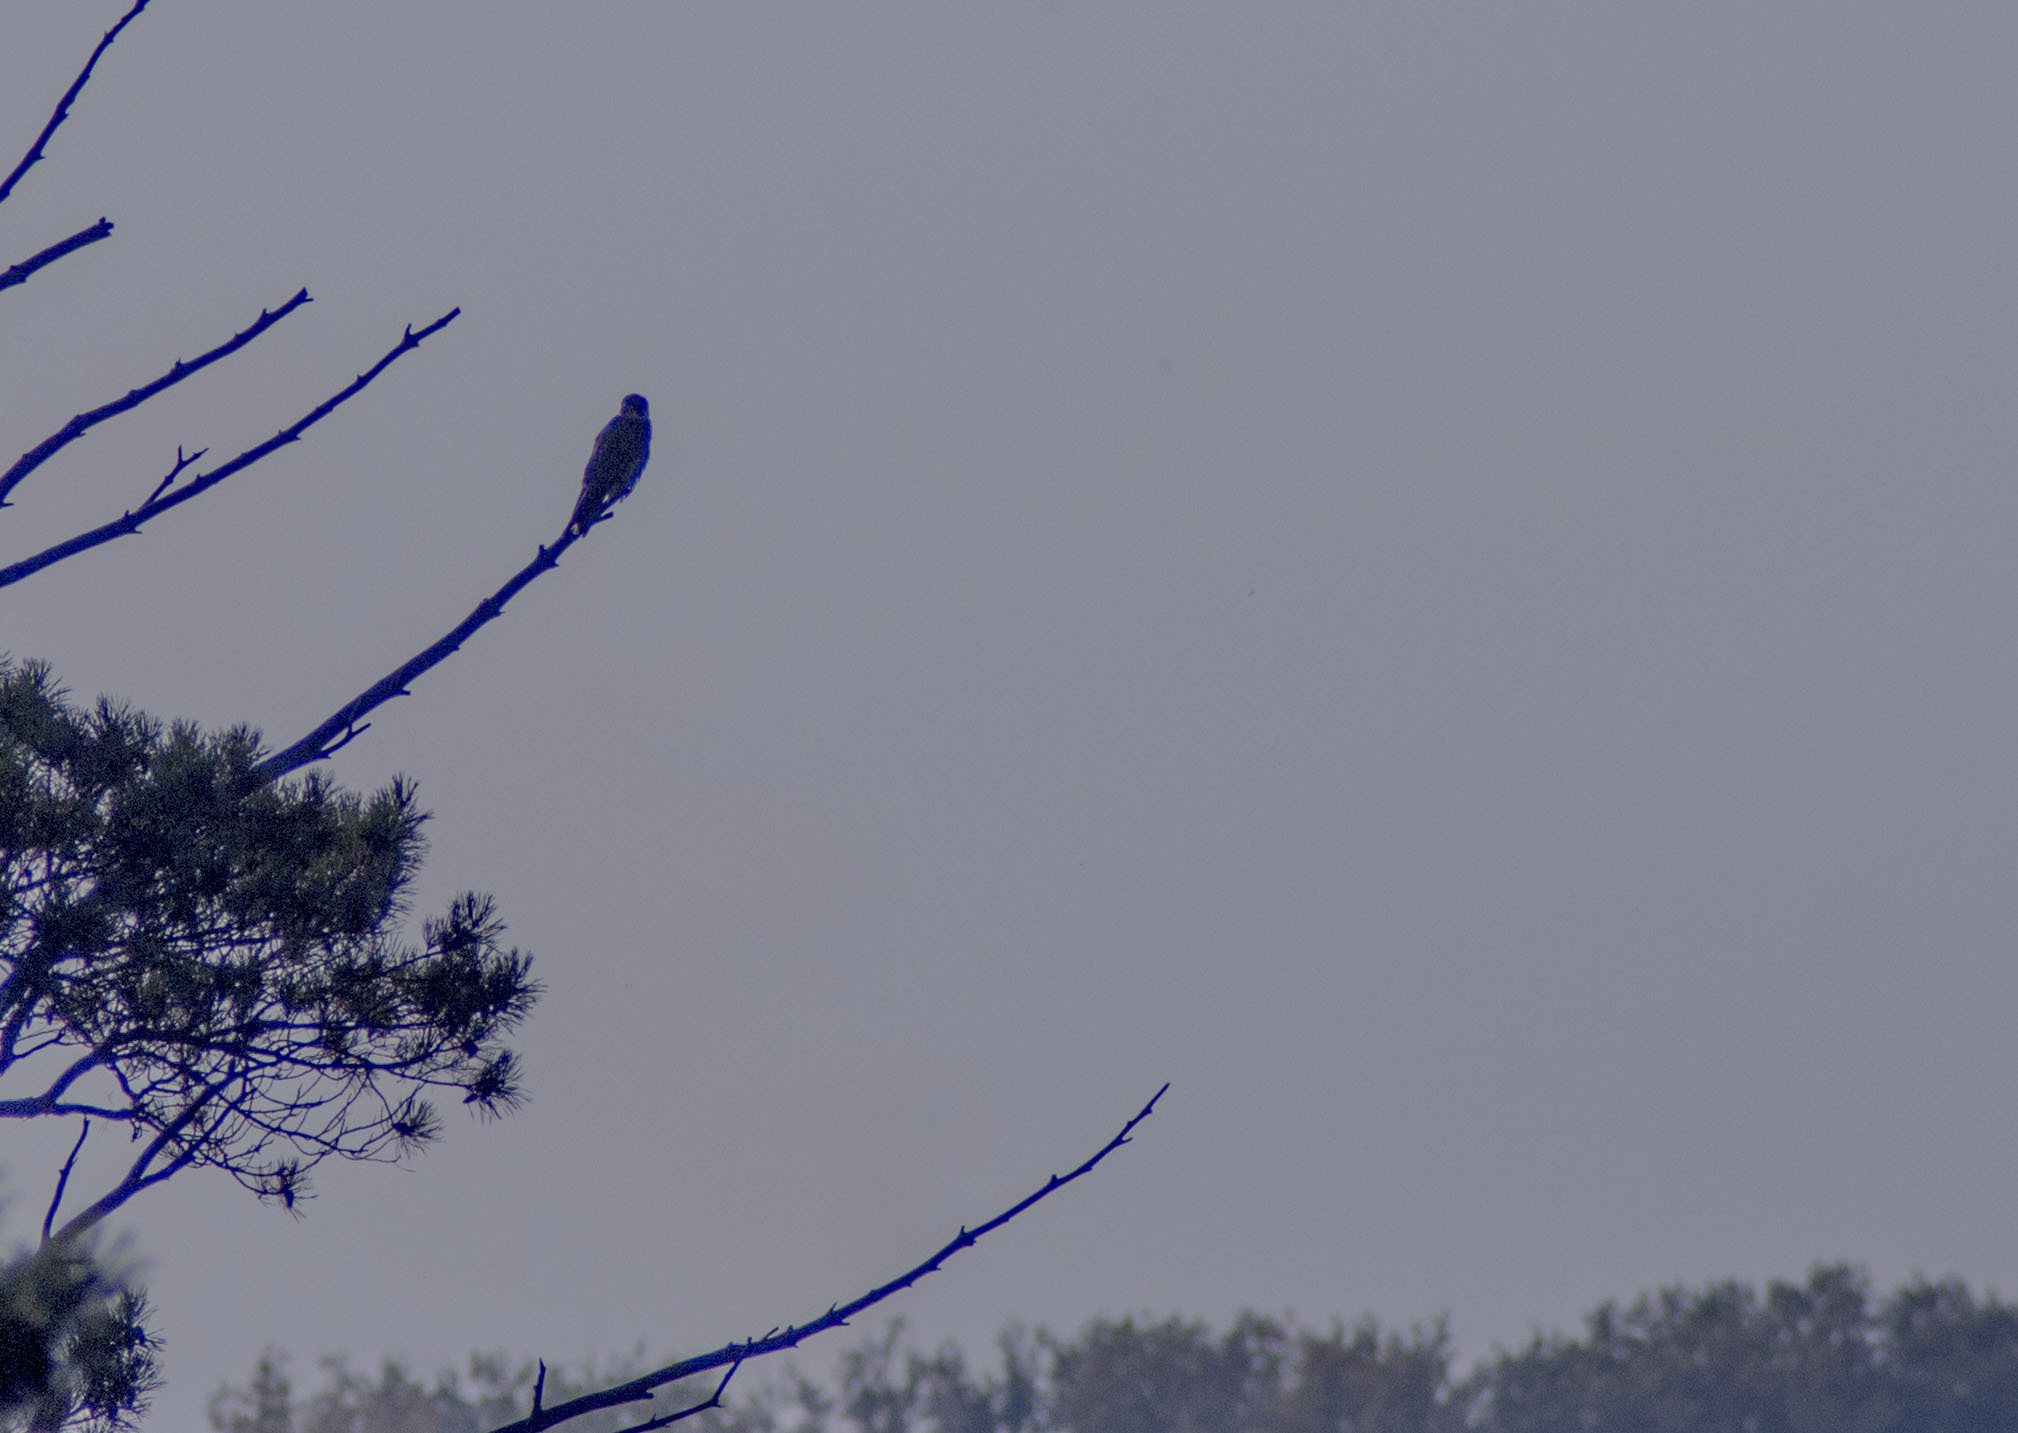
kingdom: Animalia
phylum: Chordata
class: Aves
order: Falconiformes
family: Falconidae
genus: Falco
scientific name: Falco subbuteo
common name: Eurasian hobby
